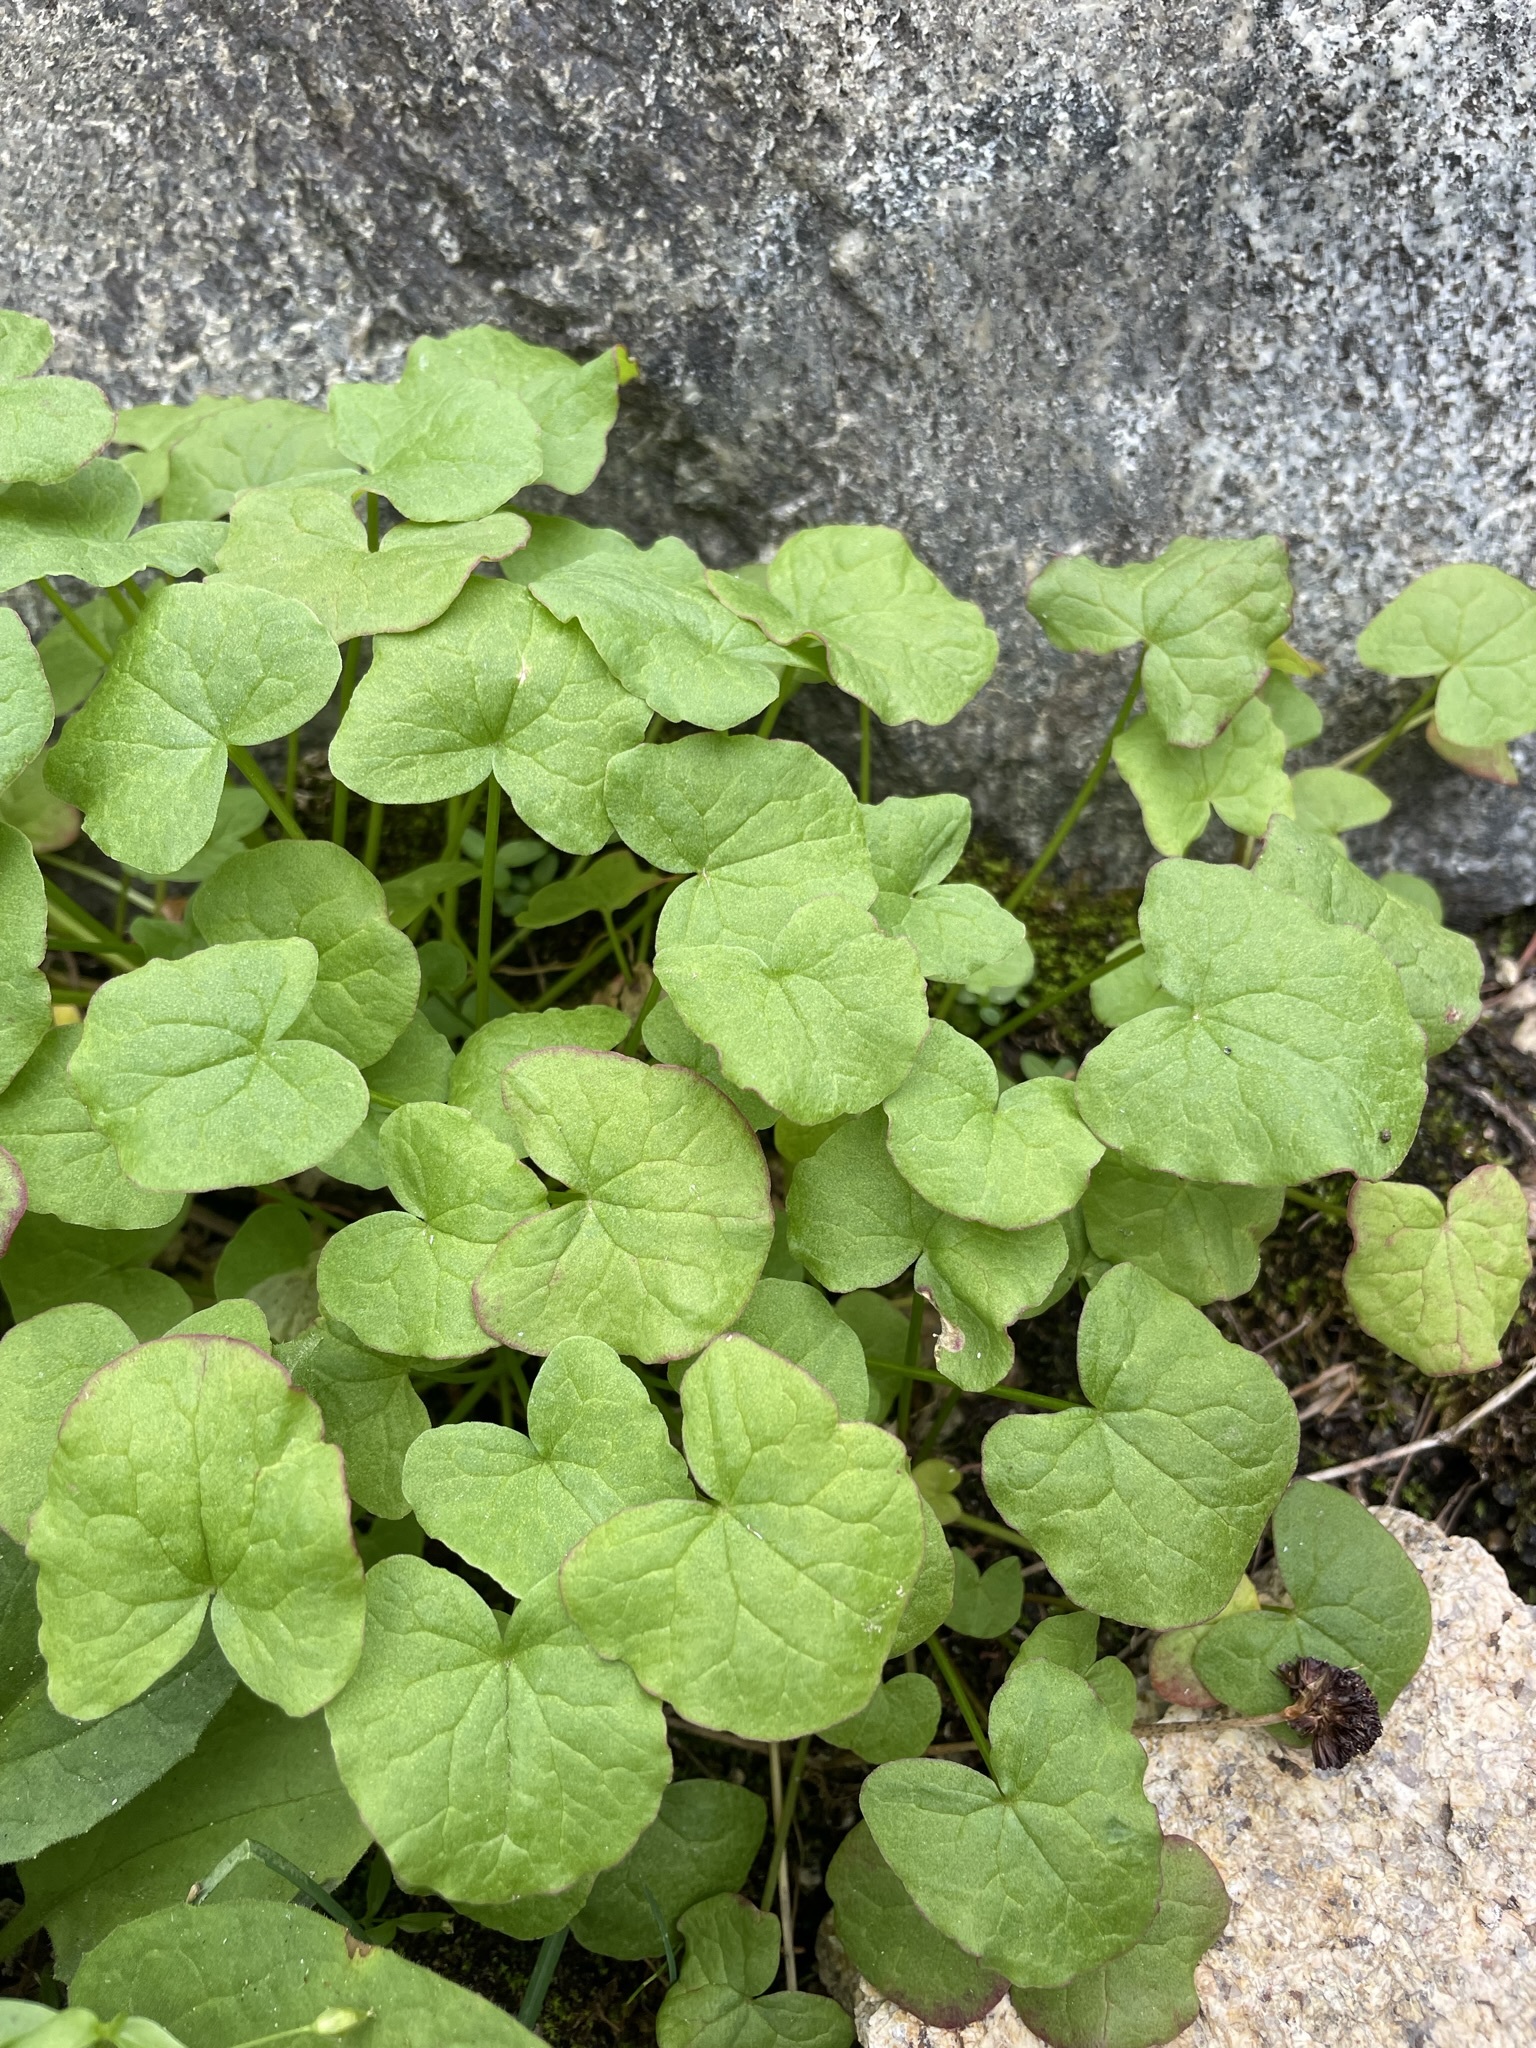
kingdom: Plantae
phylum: Tracheophyta
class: Magnoliopsida
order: Caryophyllales
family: Polygonaceae
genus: Oxyria
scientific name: Oxyria digyna
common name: Alpine mountain-sorrel
